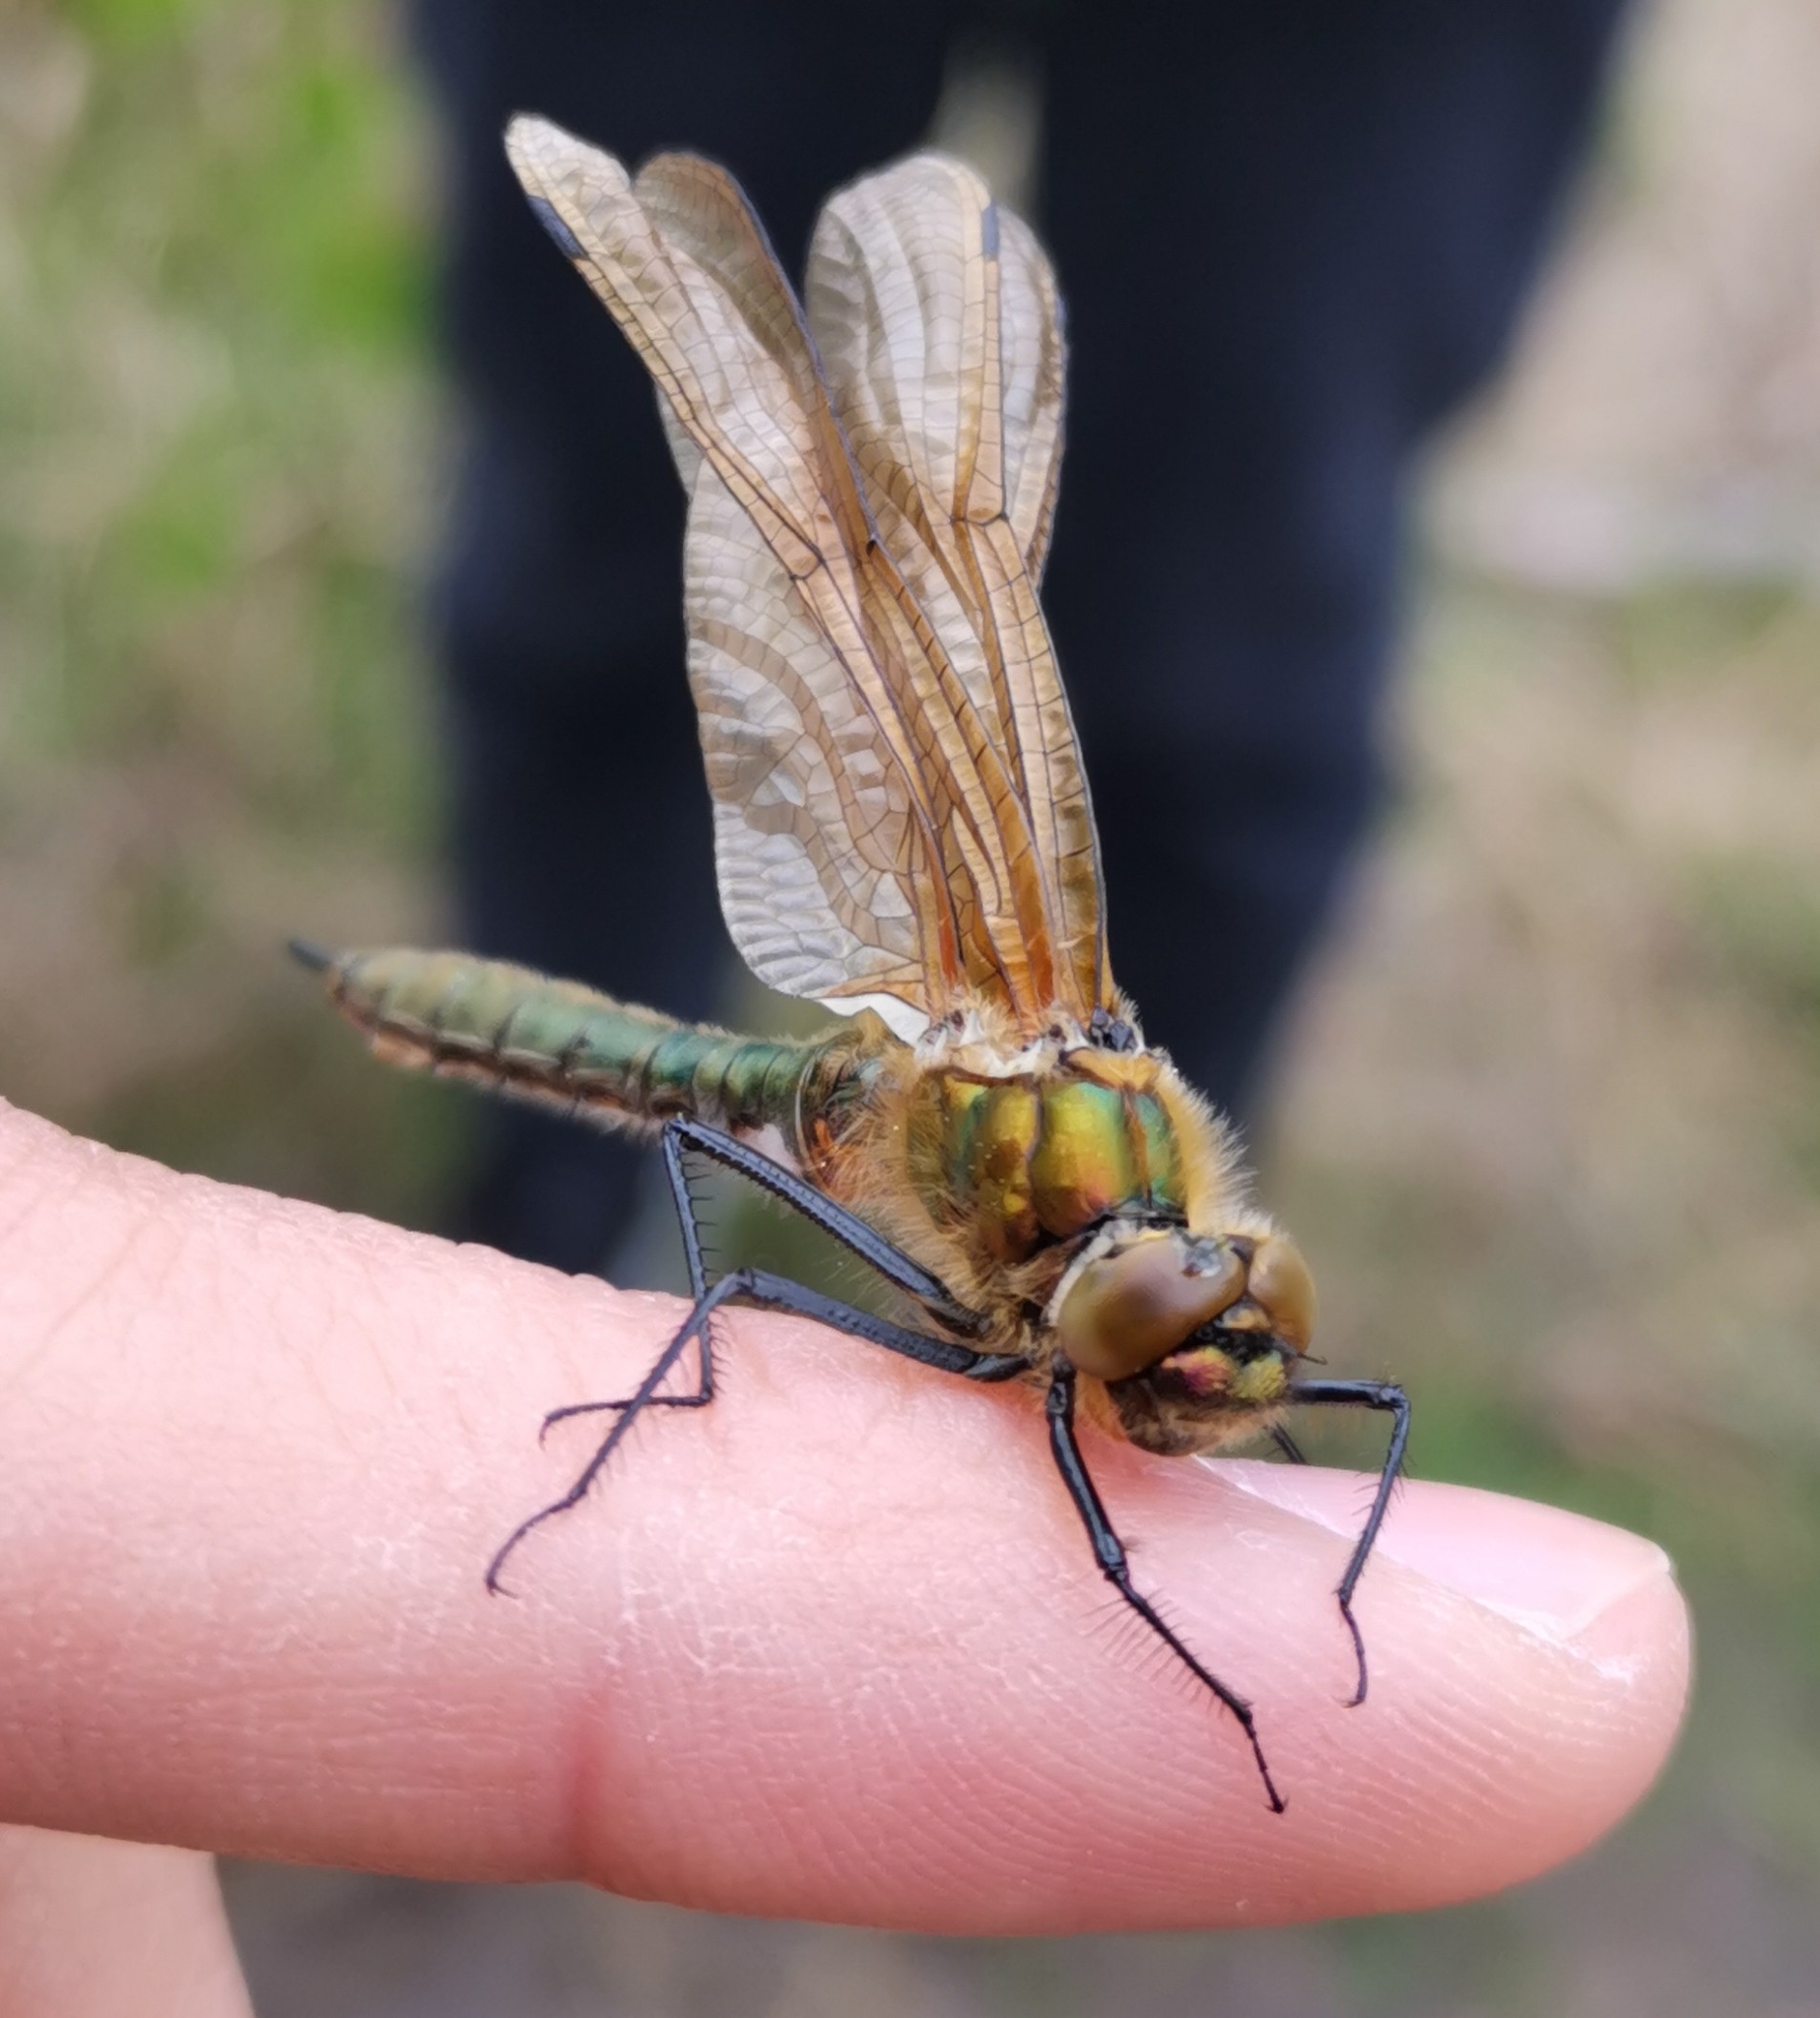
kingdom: Animalia
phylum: Arthropoda
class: Insecta
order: Odonata
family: Corduliidae
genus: Cordulia
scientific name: Cordulia aenea
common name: Downy emerald
